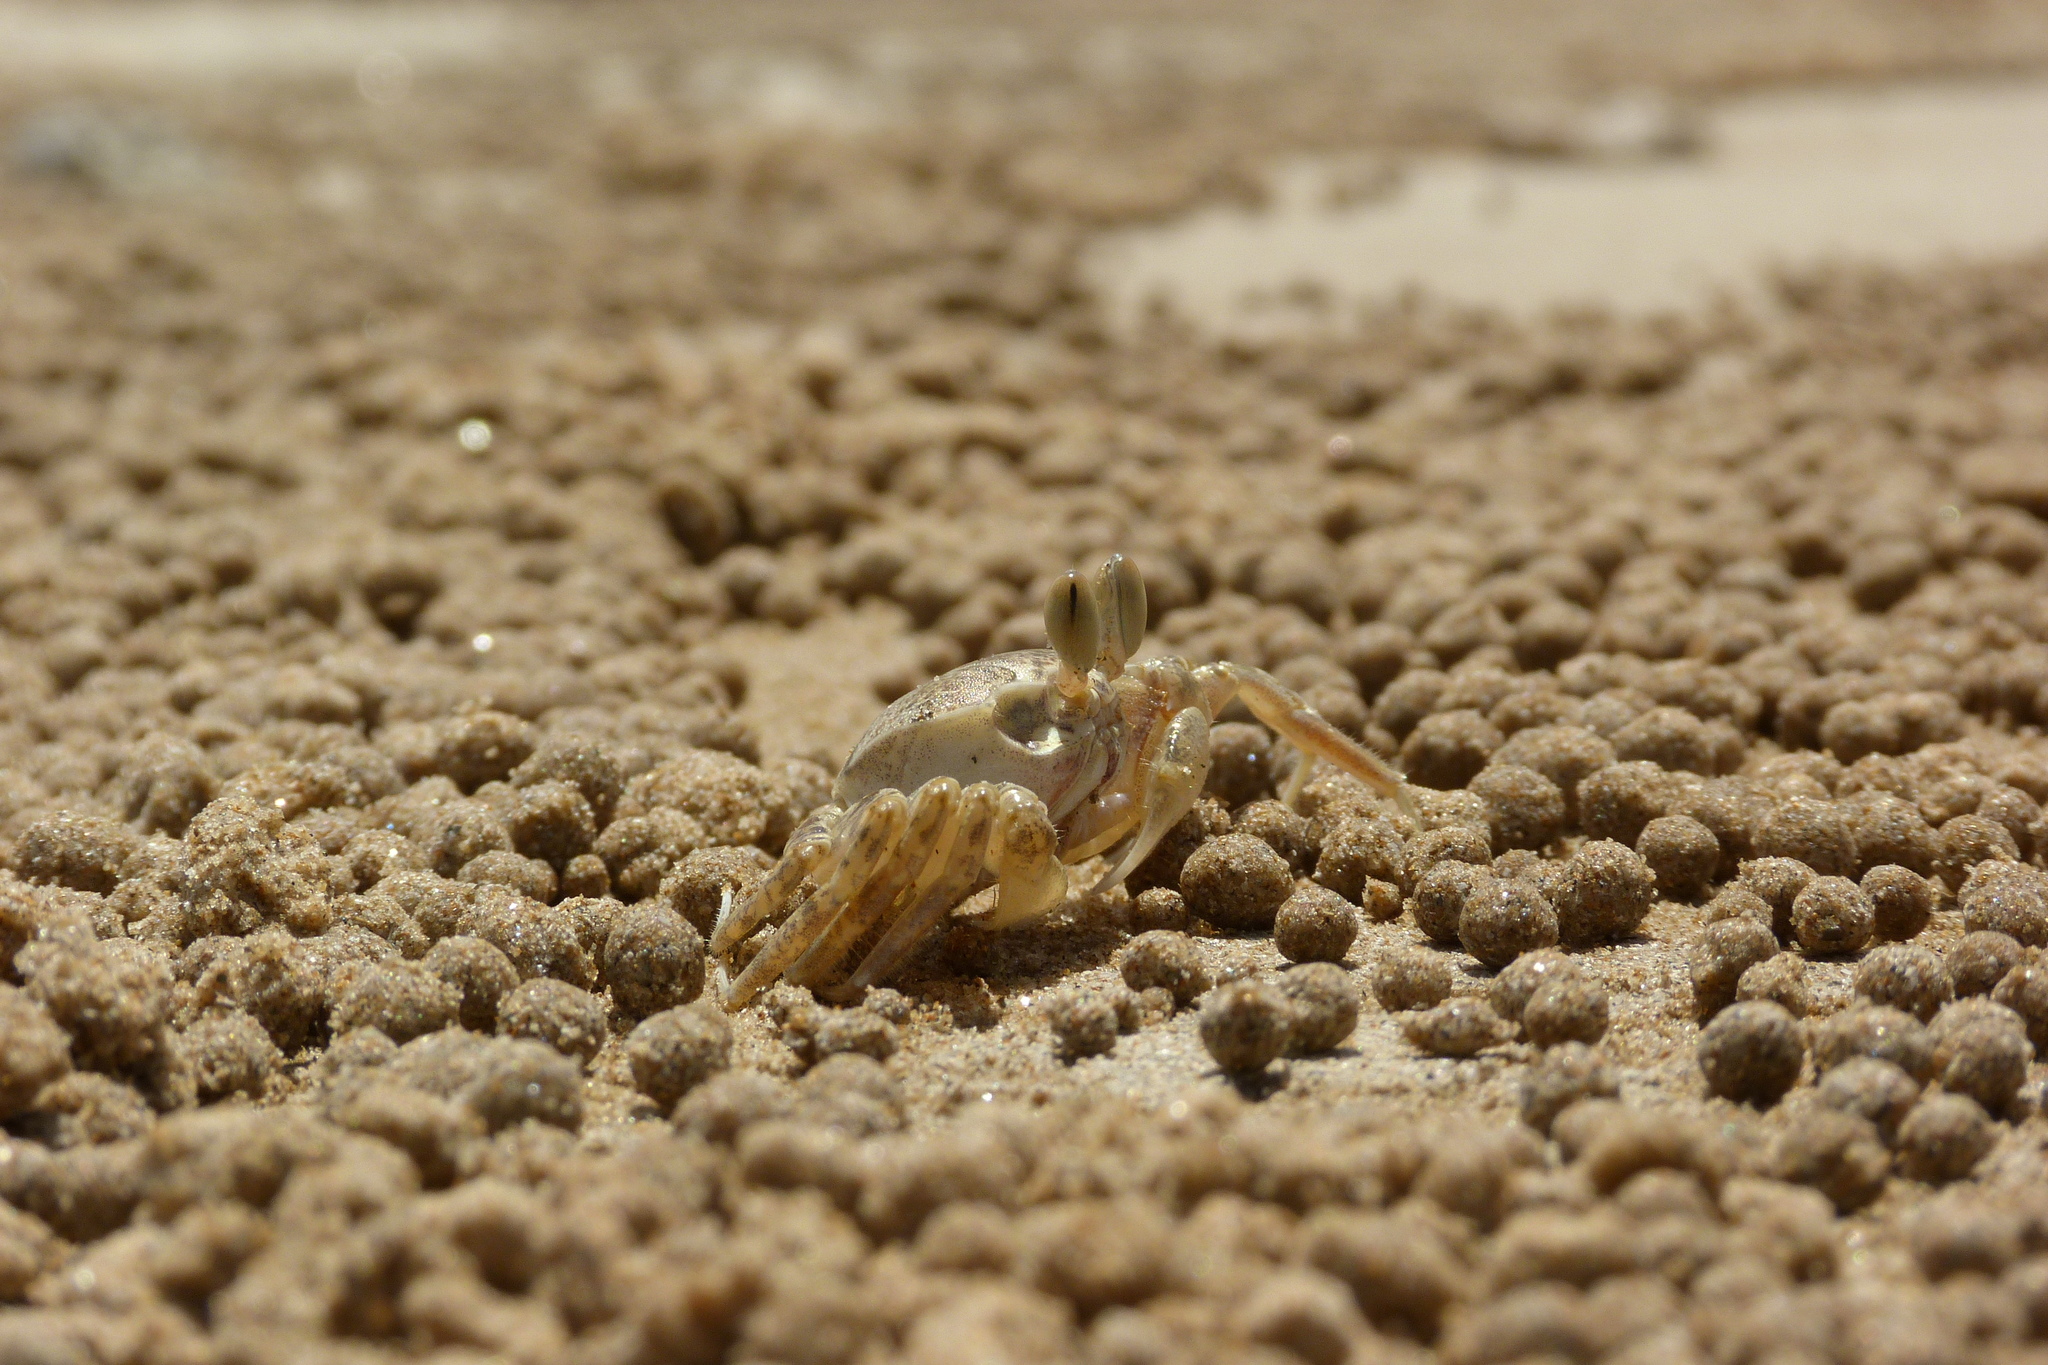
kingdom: Animalia
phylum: Arthropoda
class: Malacostraca
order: Decapoda
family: Ocypodidae
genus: Ocypode
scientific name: Ocypode cordimana
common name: Smooth-eyed ghost crab
